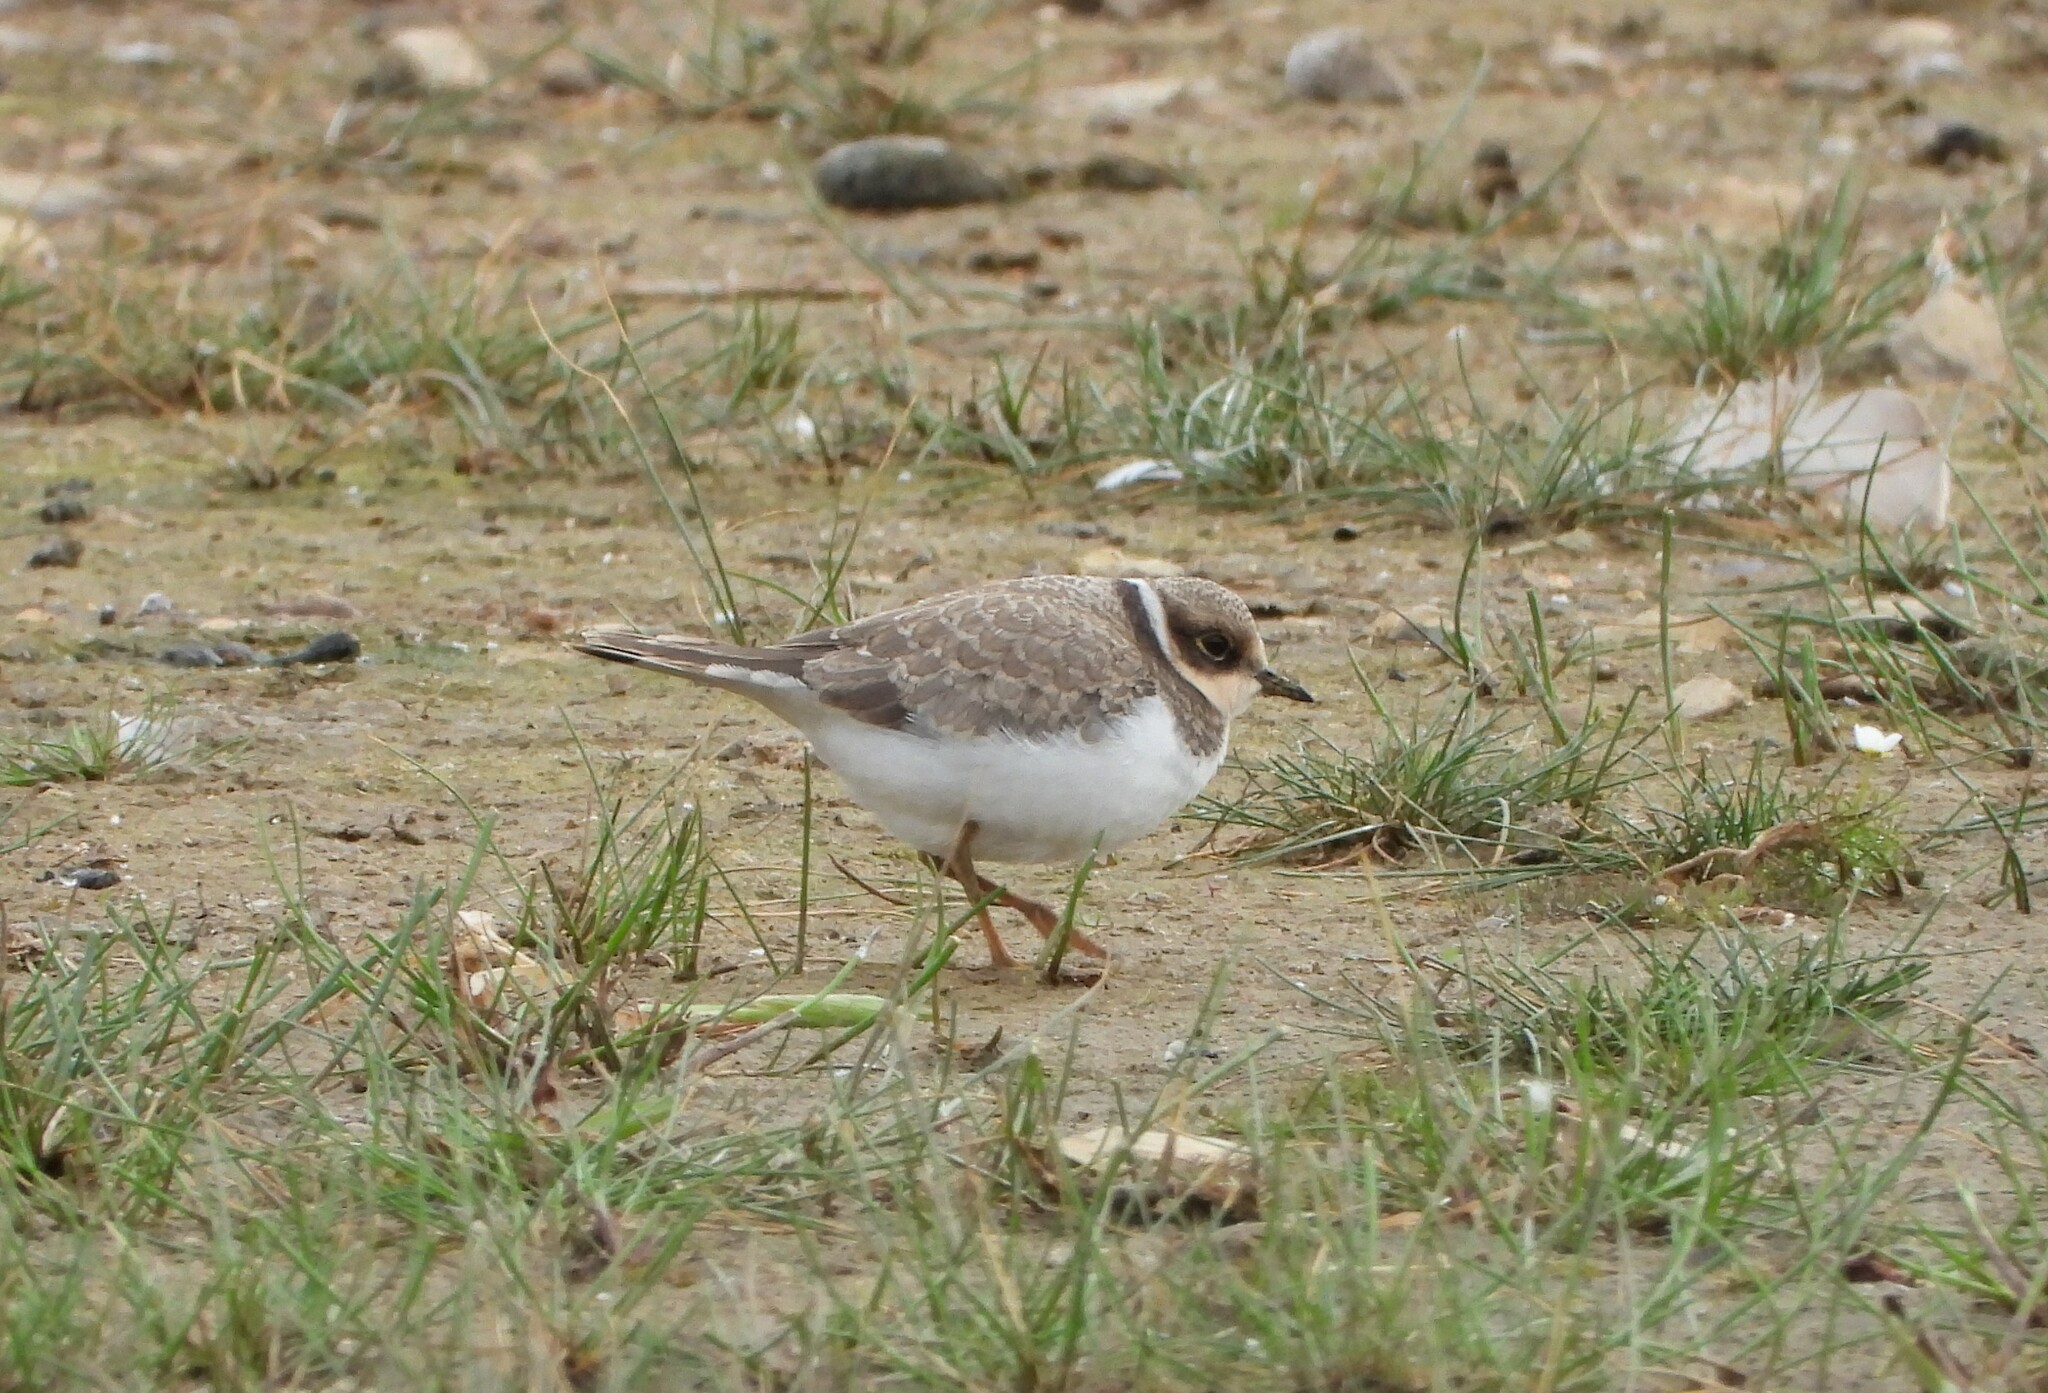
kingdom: Animalia
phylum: Chordata
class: Aves
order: Charadriiformes
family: Charadriidae
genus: Charadrius
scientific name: Charadrius hiaticula
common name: Common ringed plover
